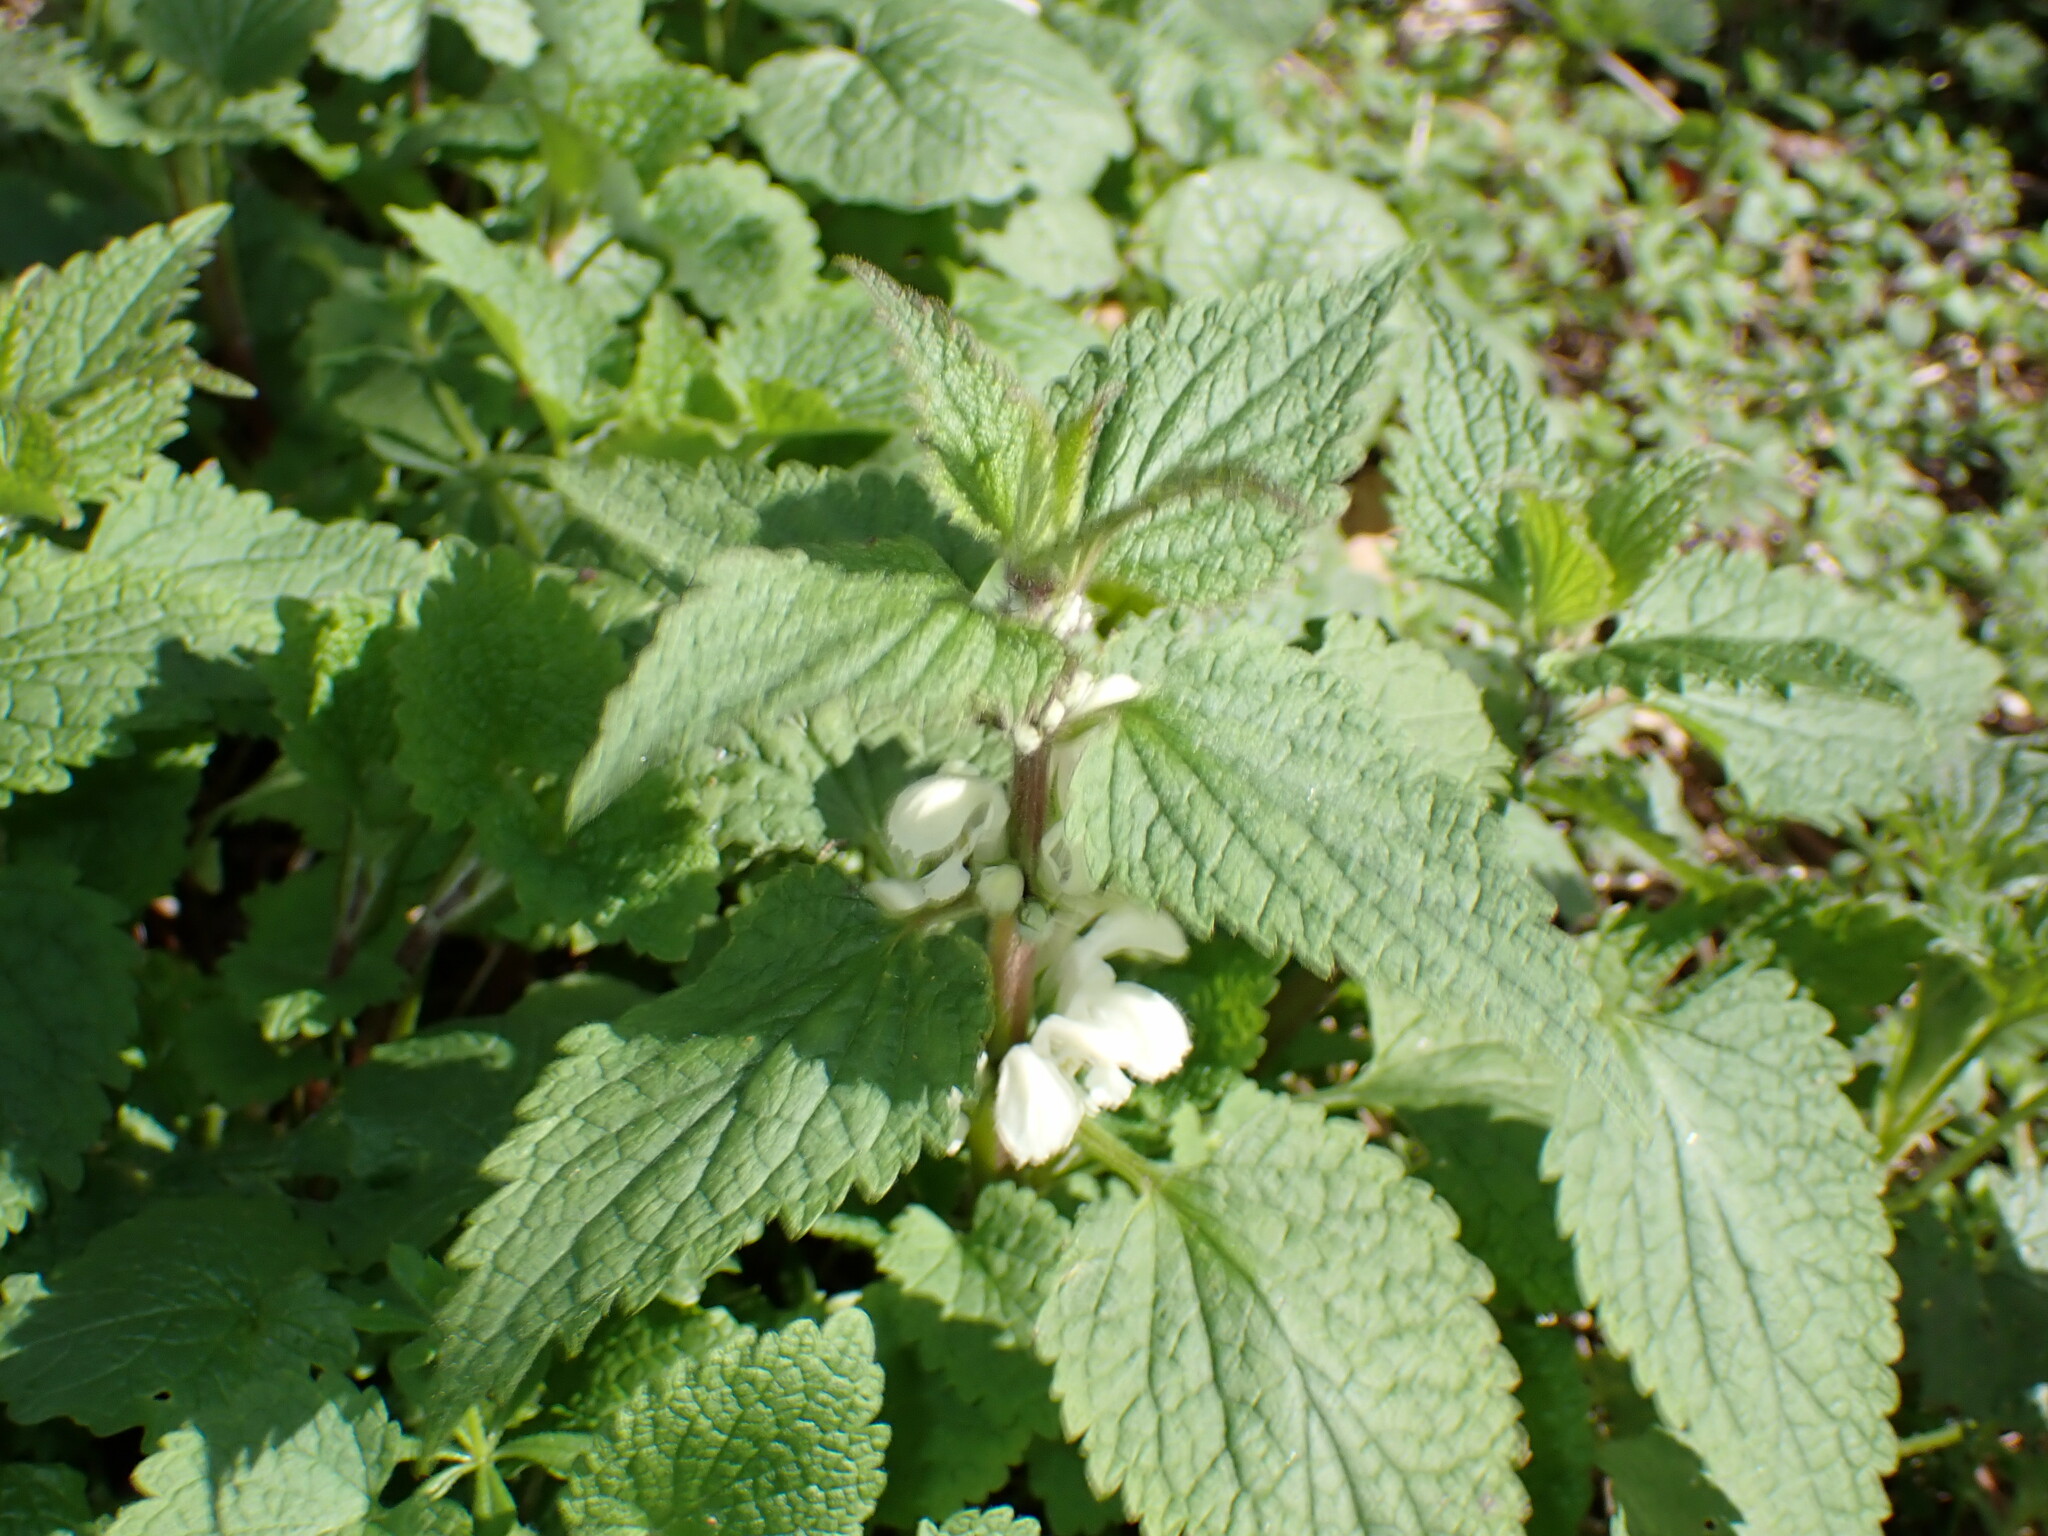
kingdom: Plantae
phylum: Tracheophyta
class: Magnoliopsida
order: Lamiales
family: Lamiaceae
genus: Lamium
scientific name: Lamium album
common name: White dead-nettle
